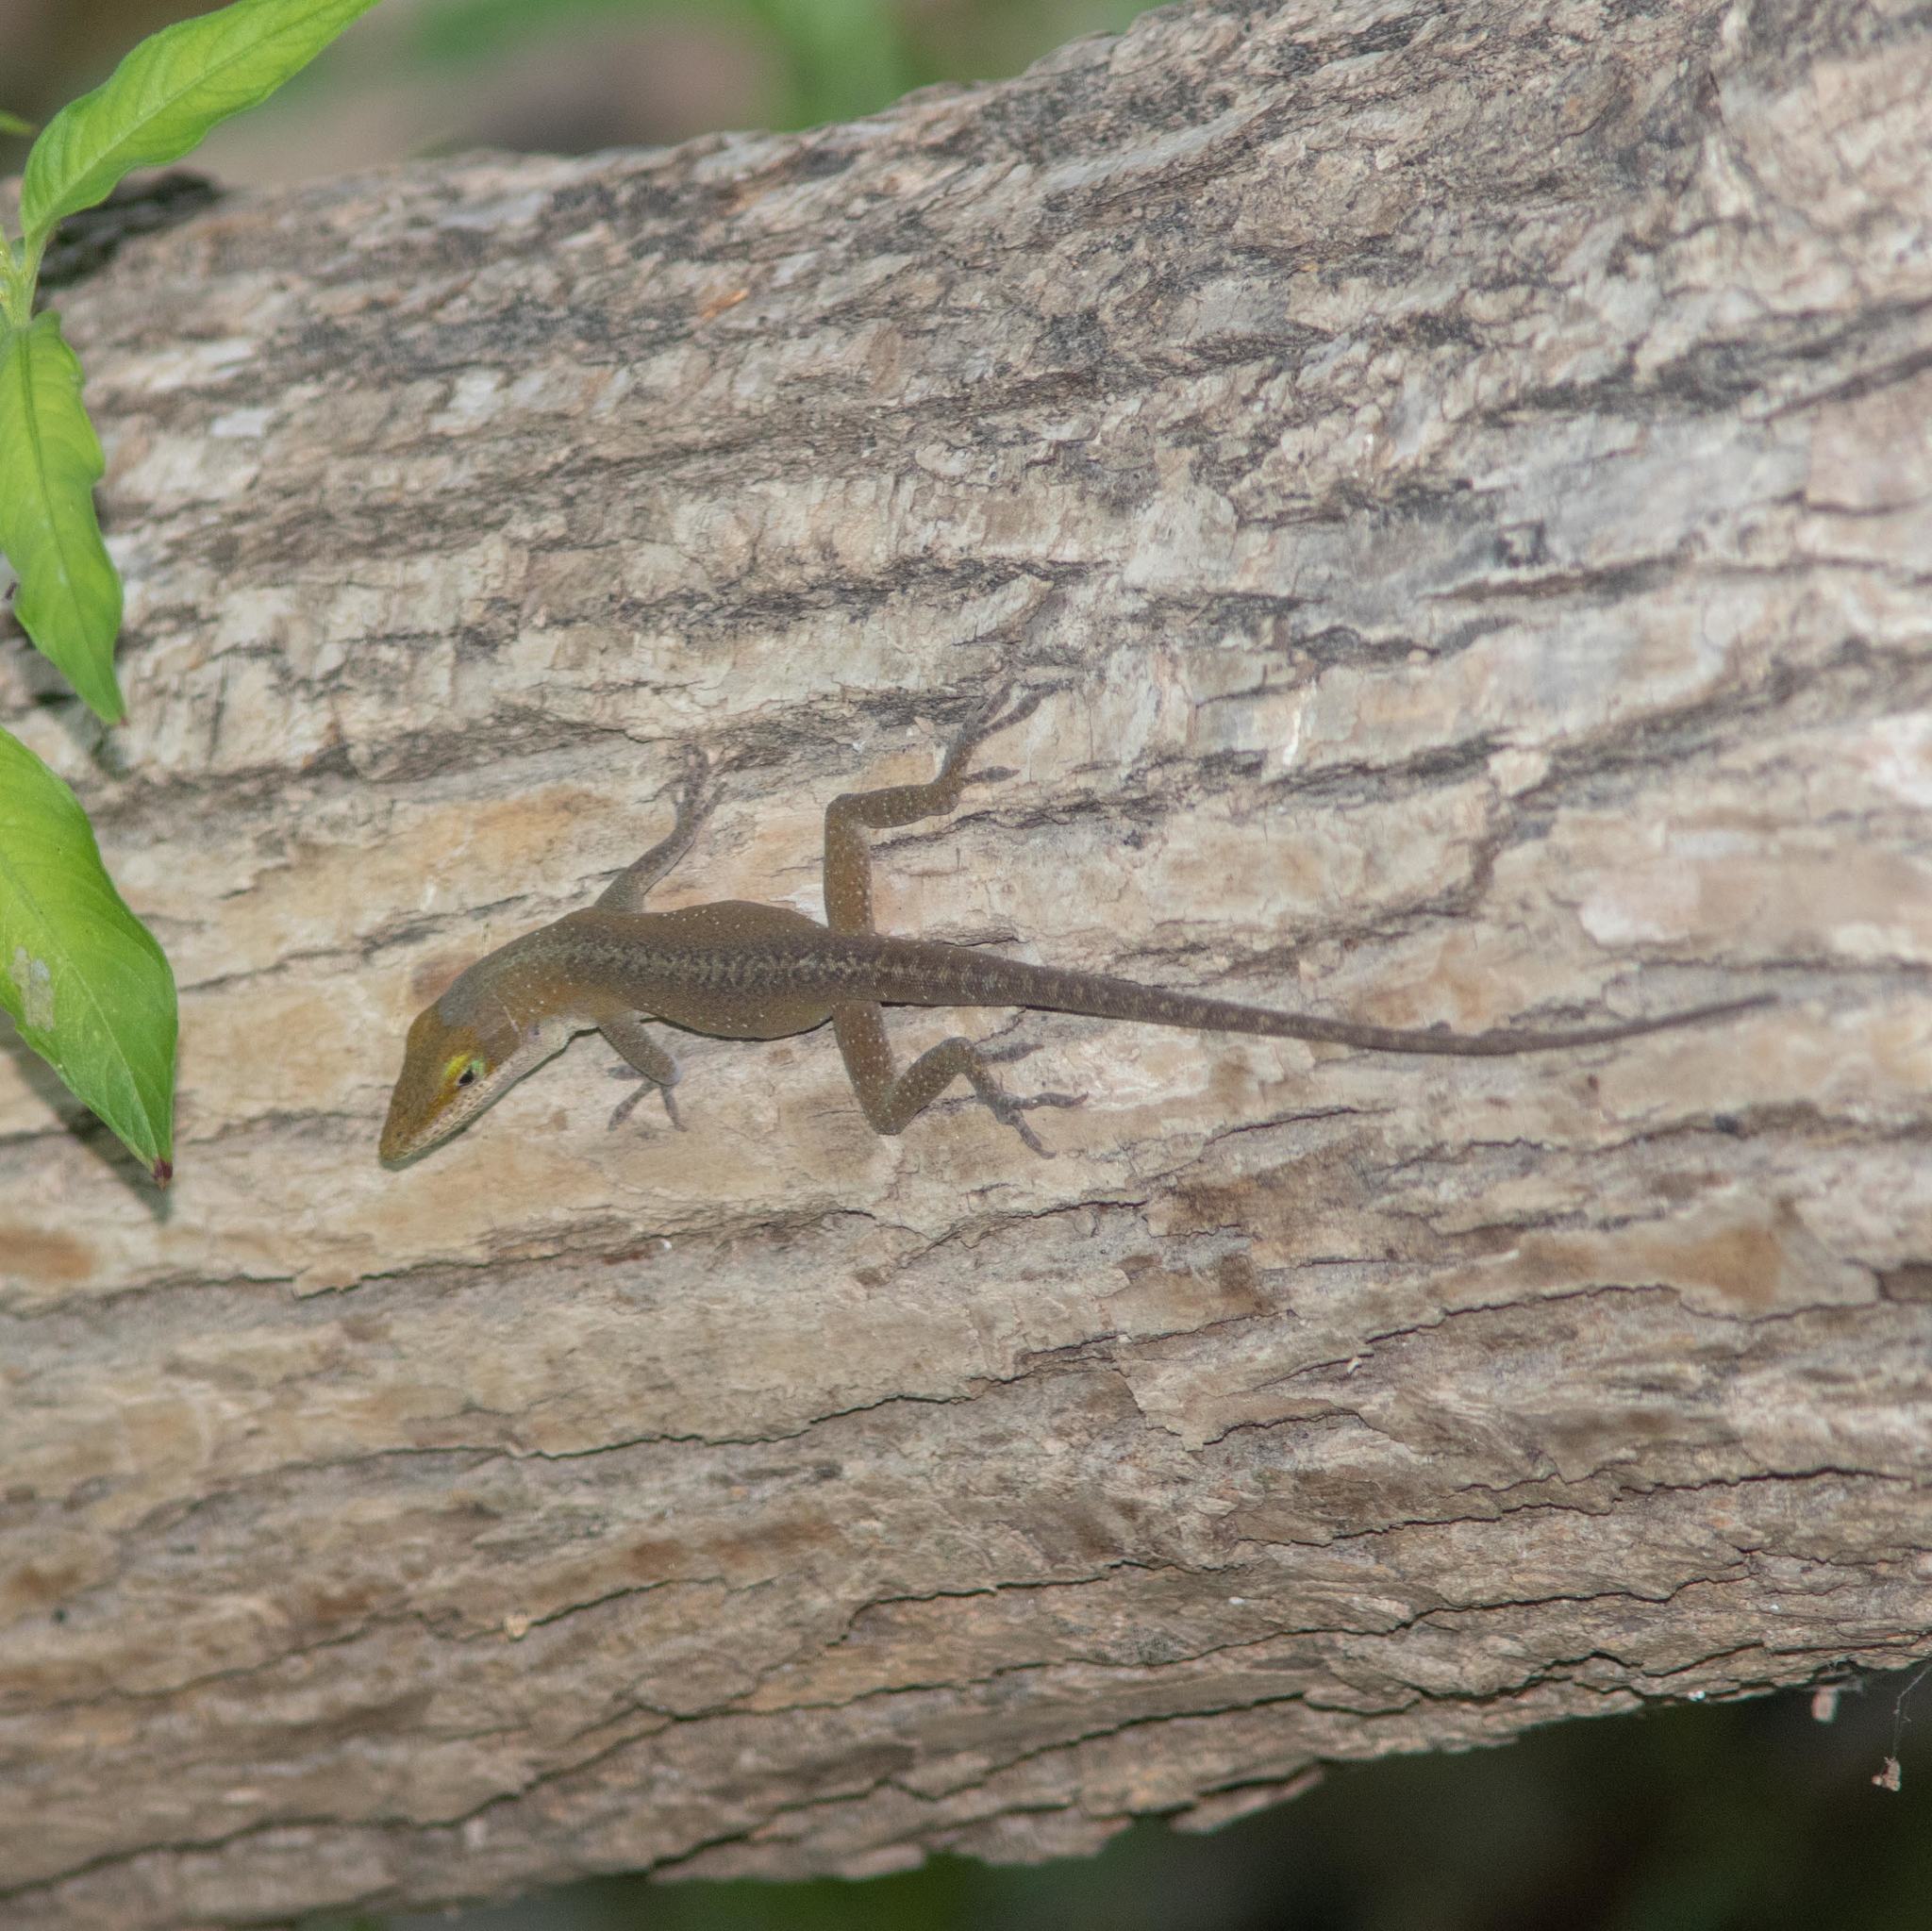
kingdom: Animalia
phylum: Chordata
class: Squamata
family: Dactyloidae
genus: Anolis
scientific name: Anolis carolinensis
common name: Green anole
